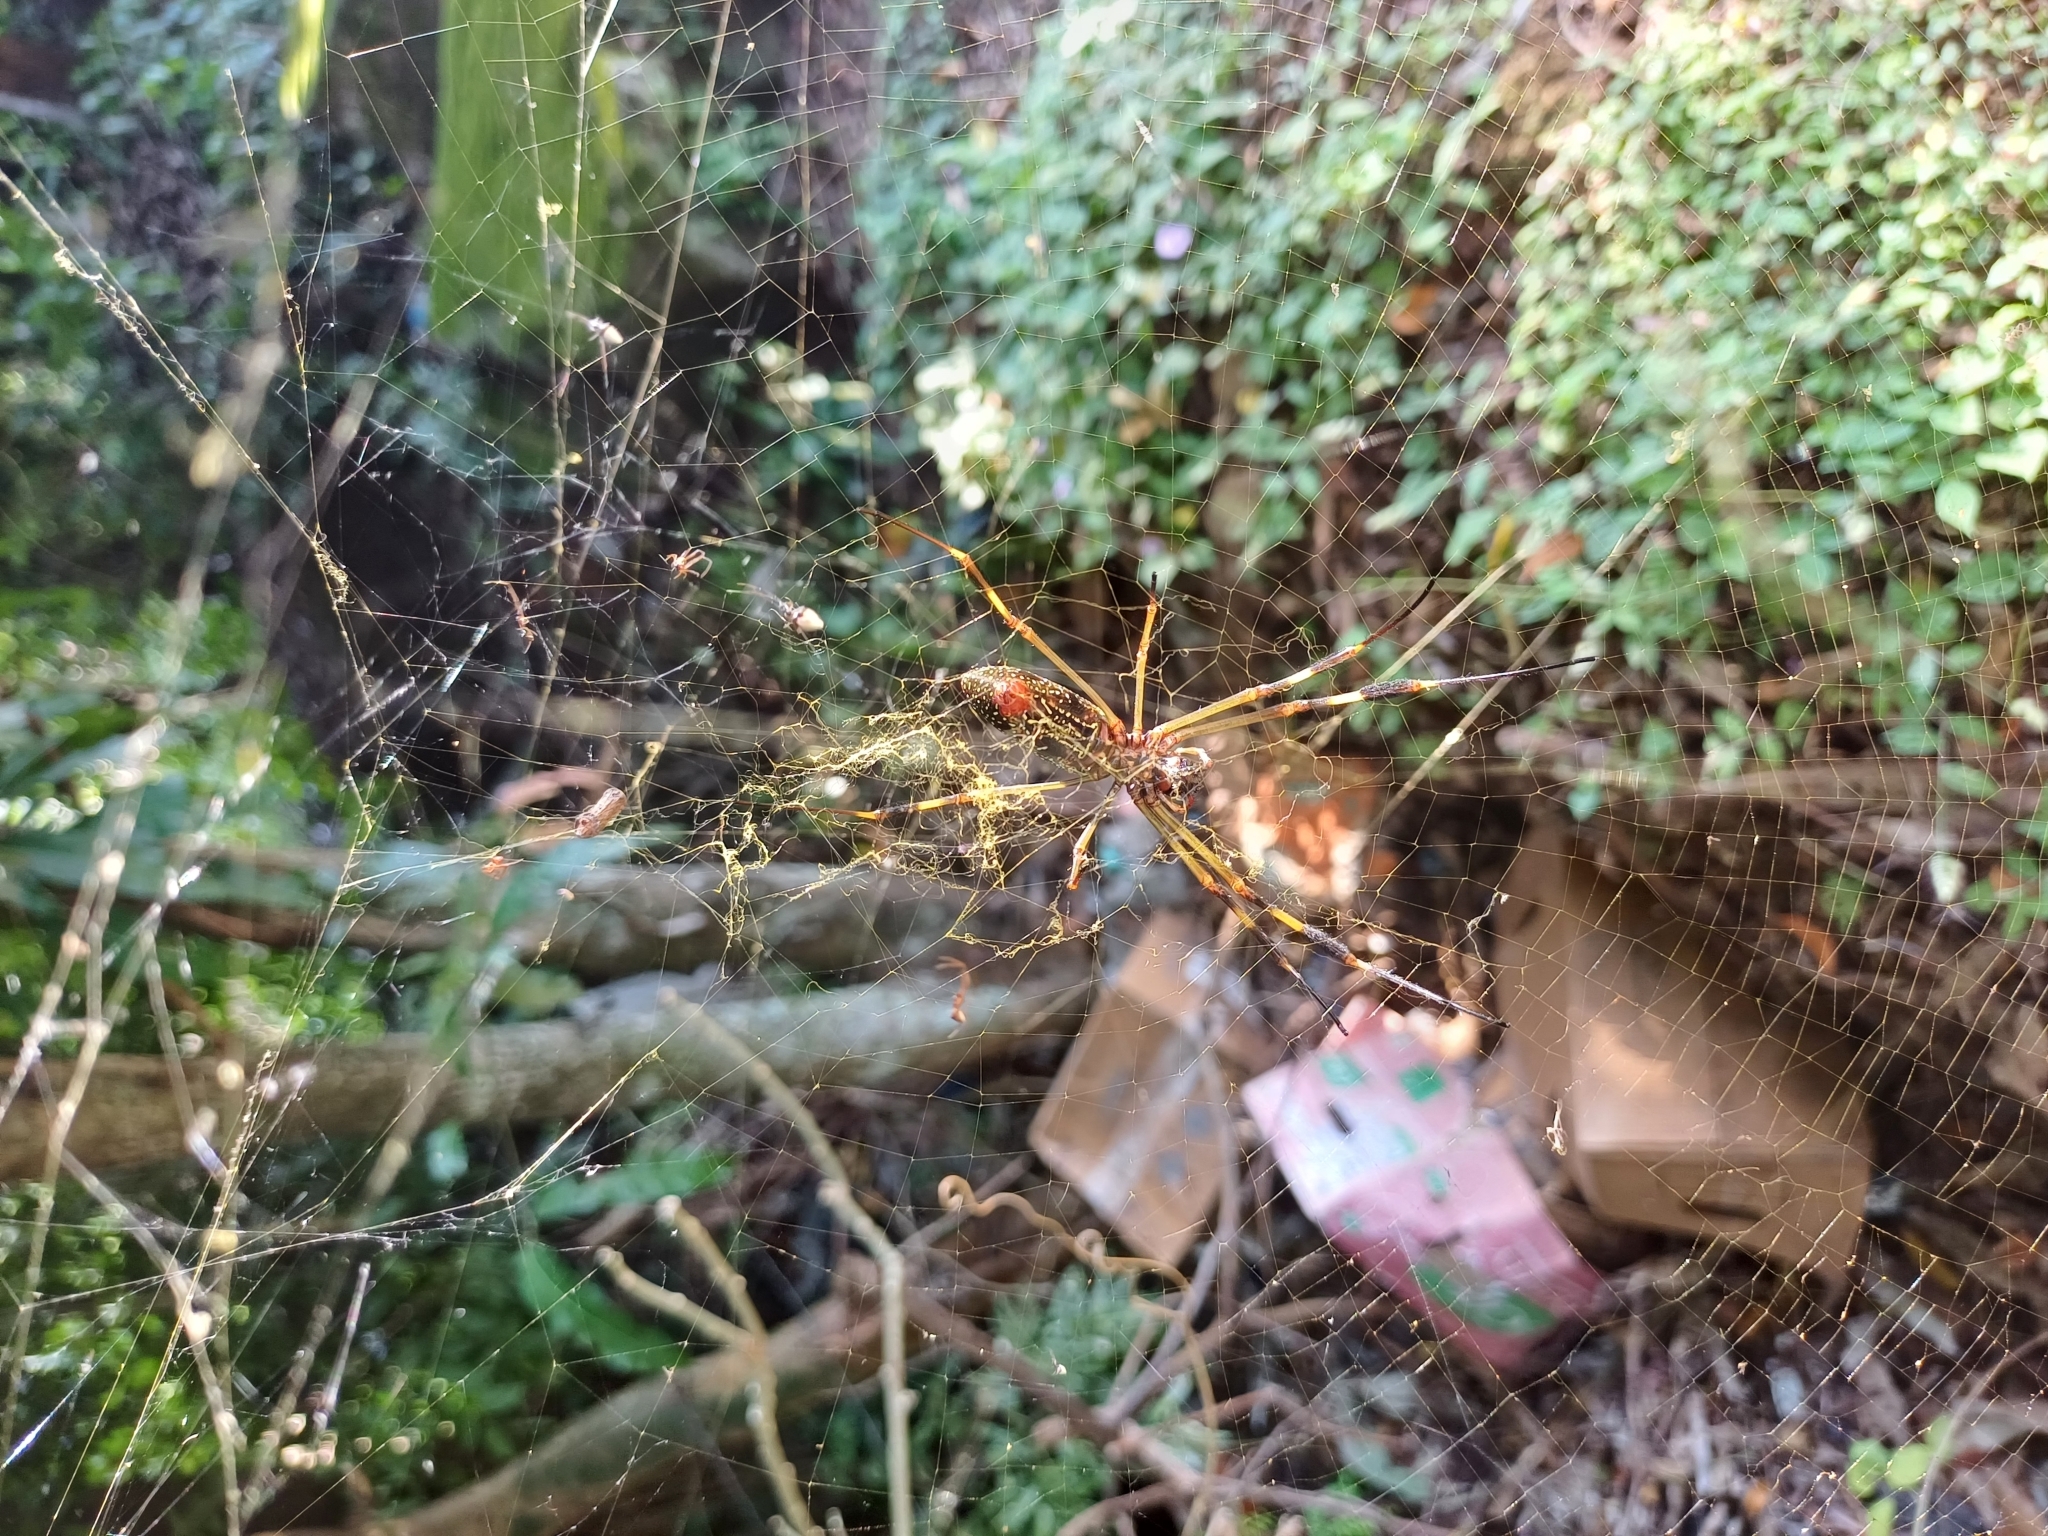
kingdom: Animalia
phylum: Arthropoda
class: Arachnida
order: Araneae
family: Araneidae
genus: Trichonephila
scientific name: Trichonephila clavipes
